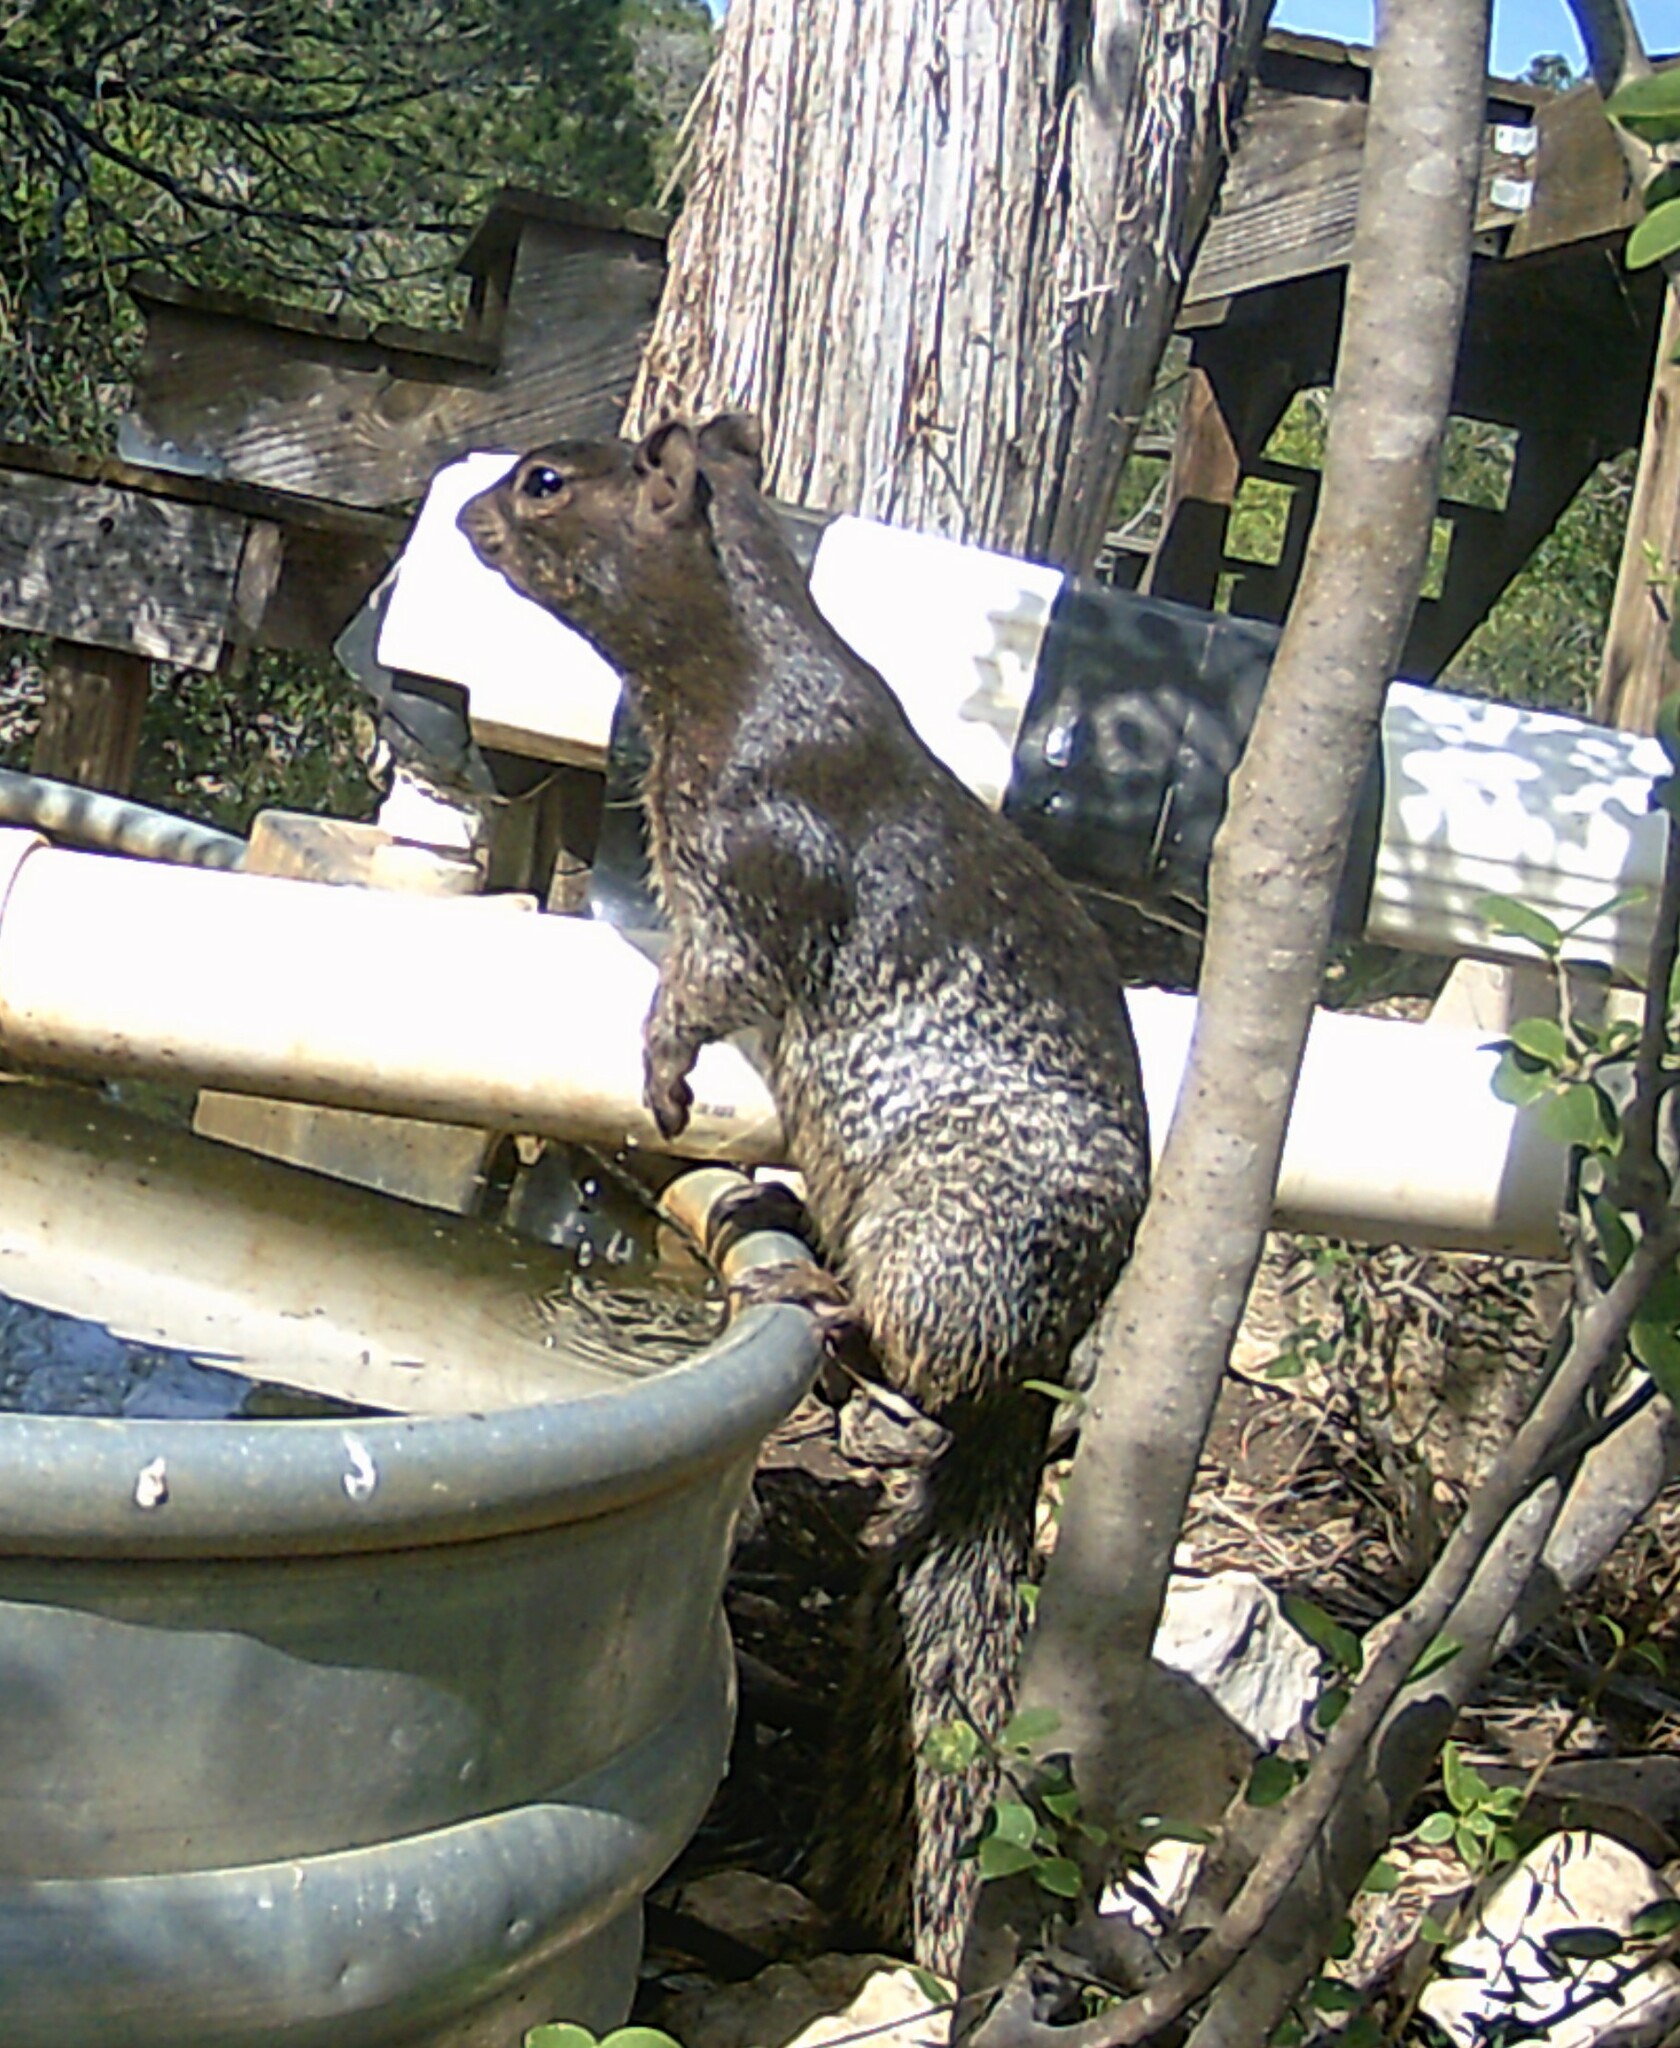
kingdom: Animalia
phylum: Chordata
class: Mammalia
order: Rodentia
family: Sciuridae
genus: Otospermophilus
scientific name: Otospermophilus variegatus
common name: Rock squirrel
